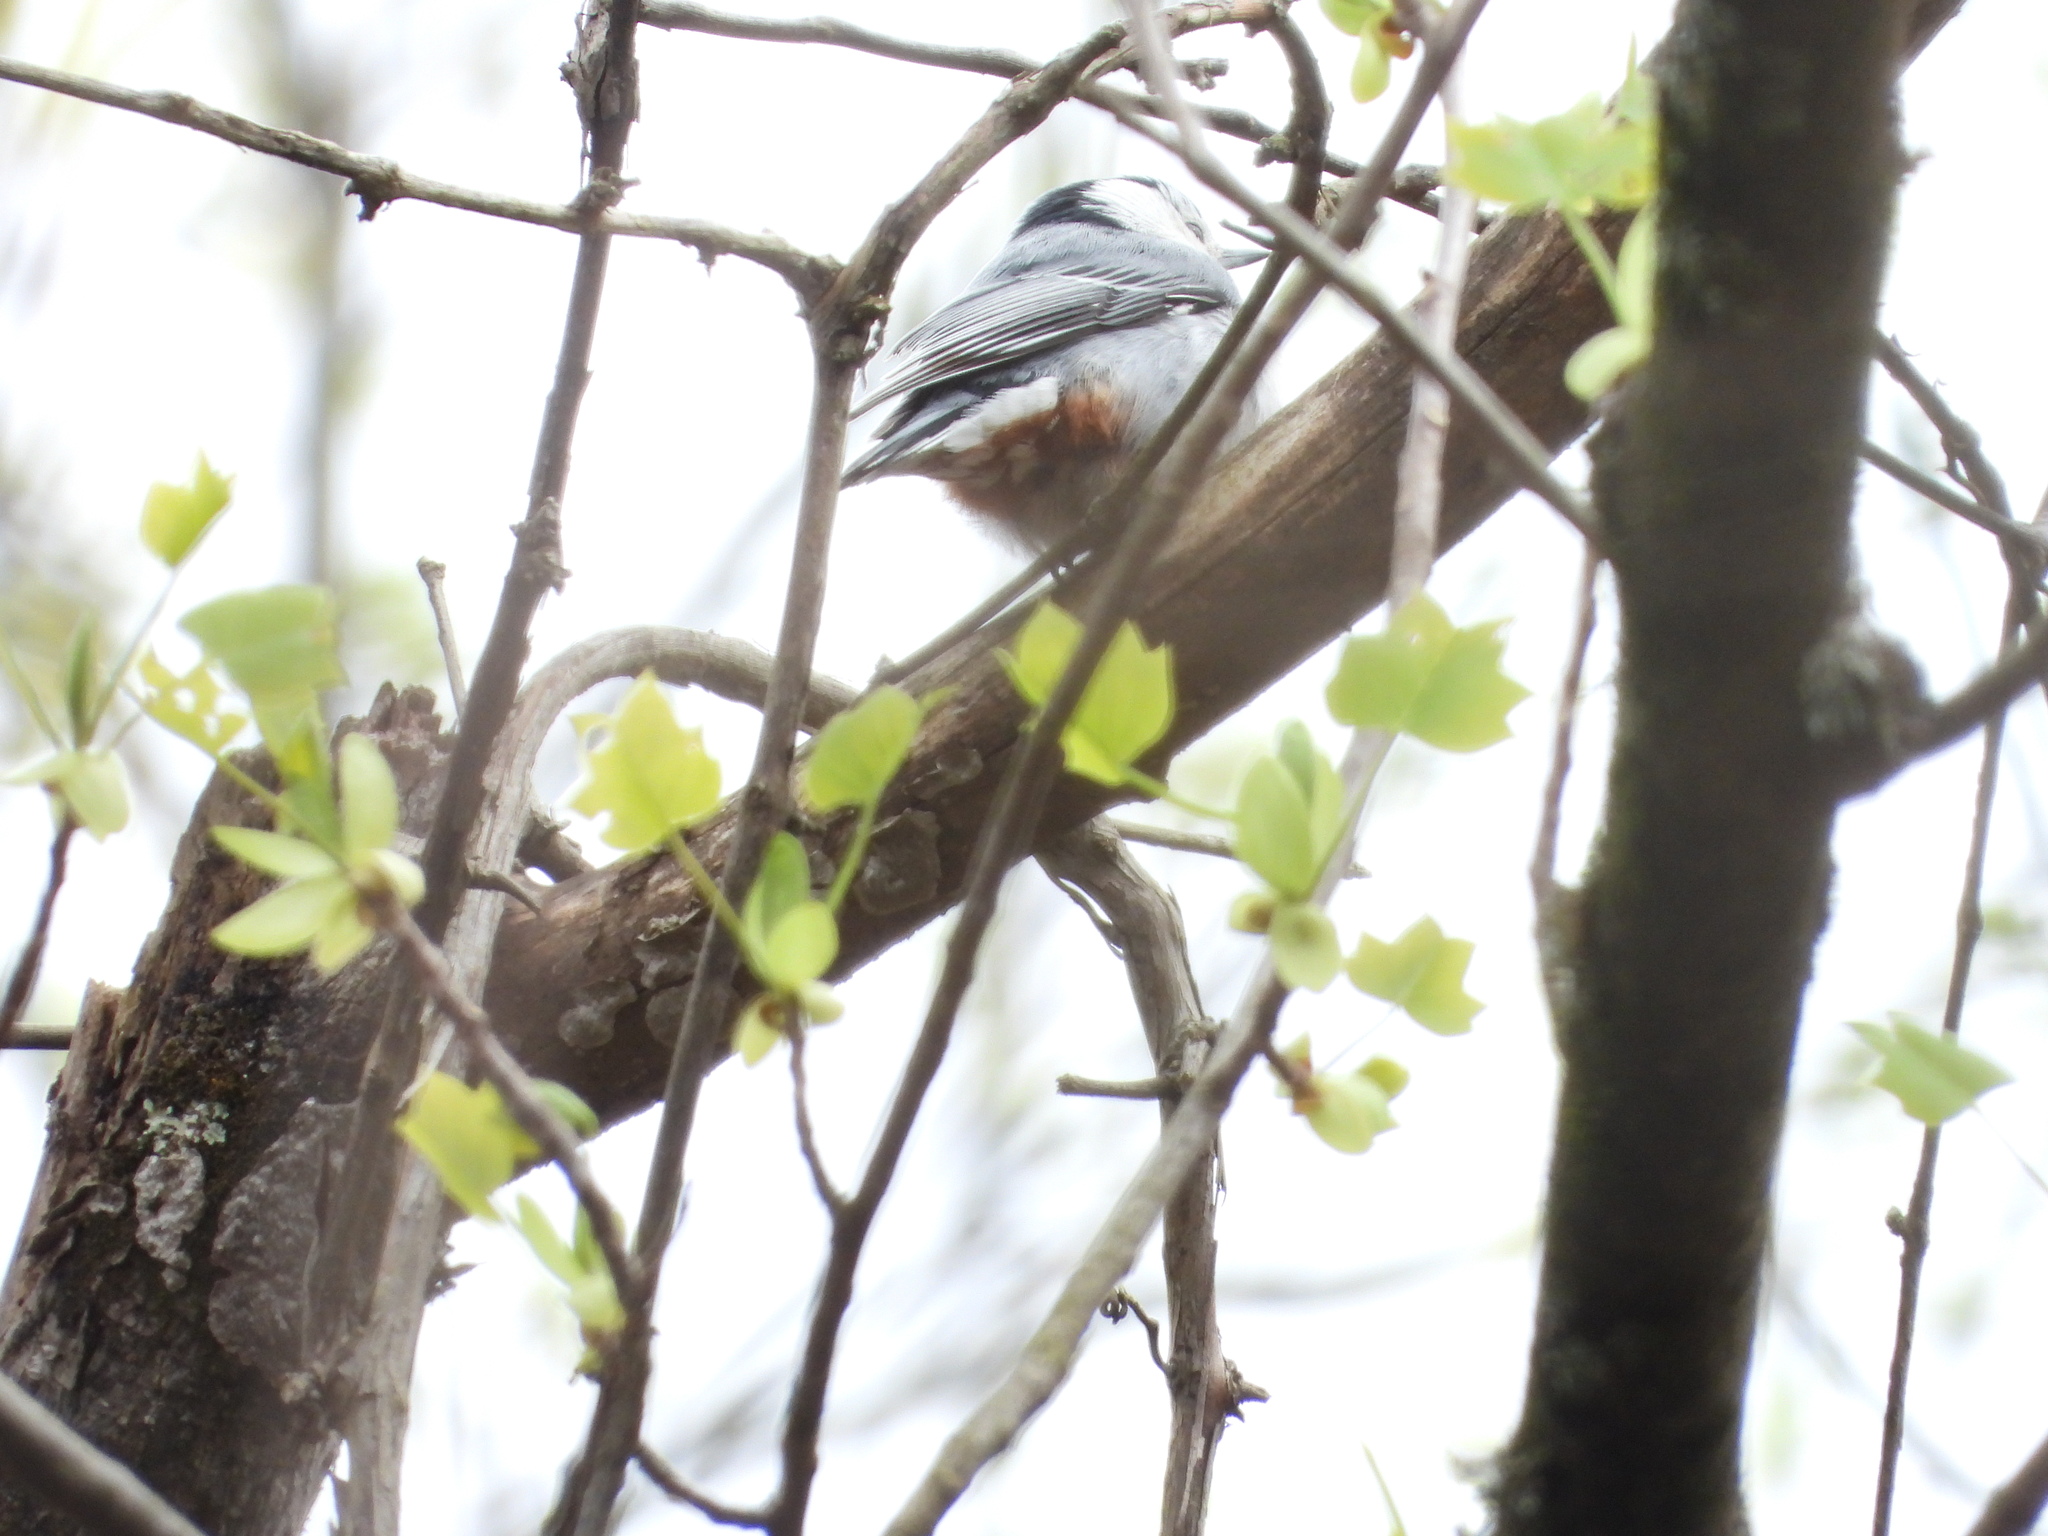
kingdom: Animalia
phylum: Chordata
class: Aves
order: Passeriformes
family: Sittidae
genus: Sitta
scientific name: Sitta carolinensis
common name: White-breasted nuthatch
